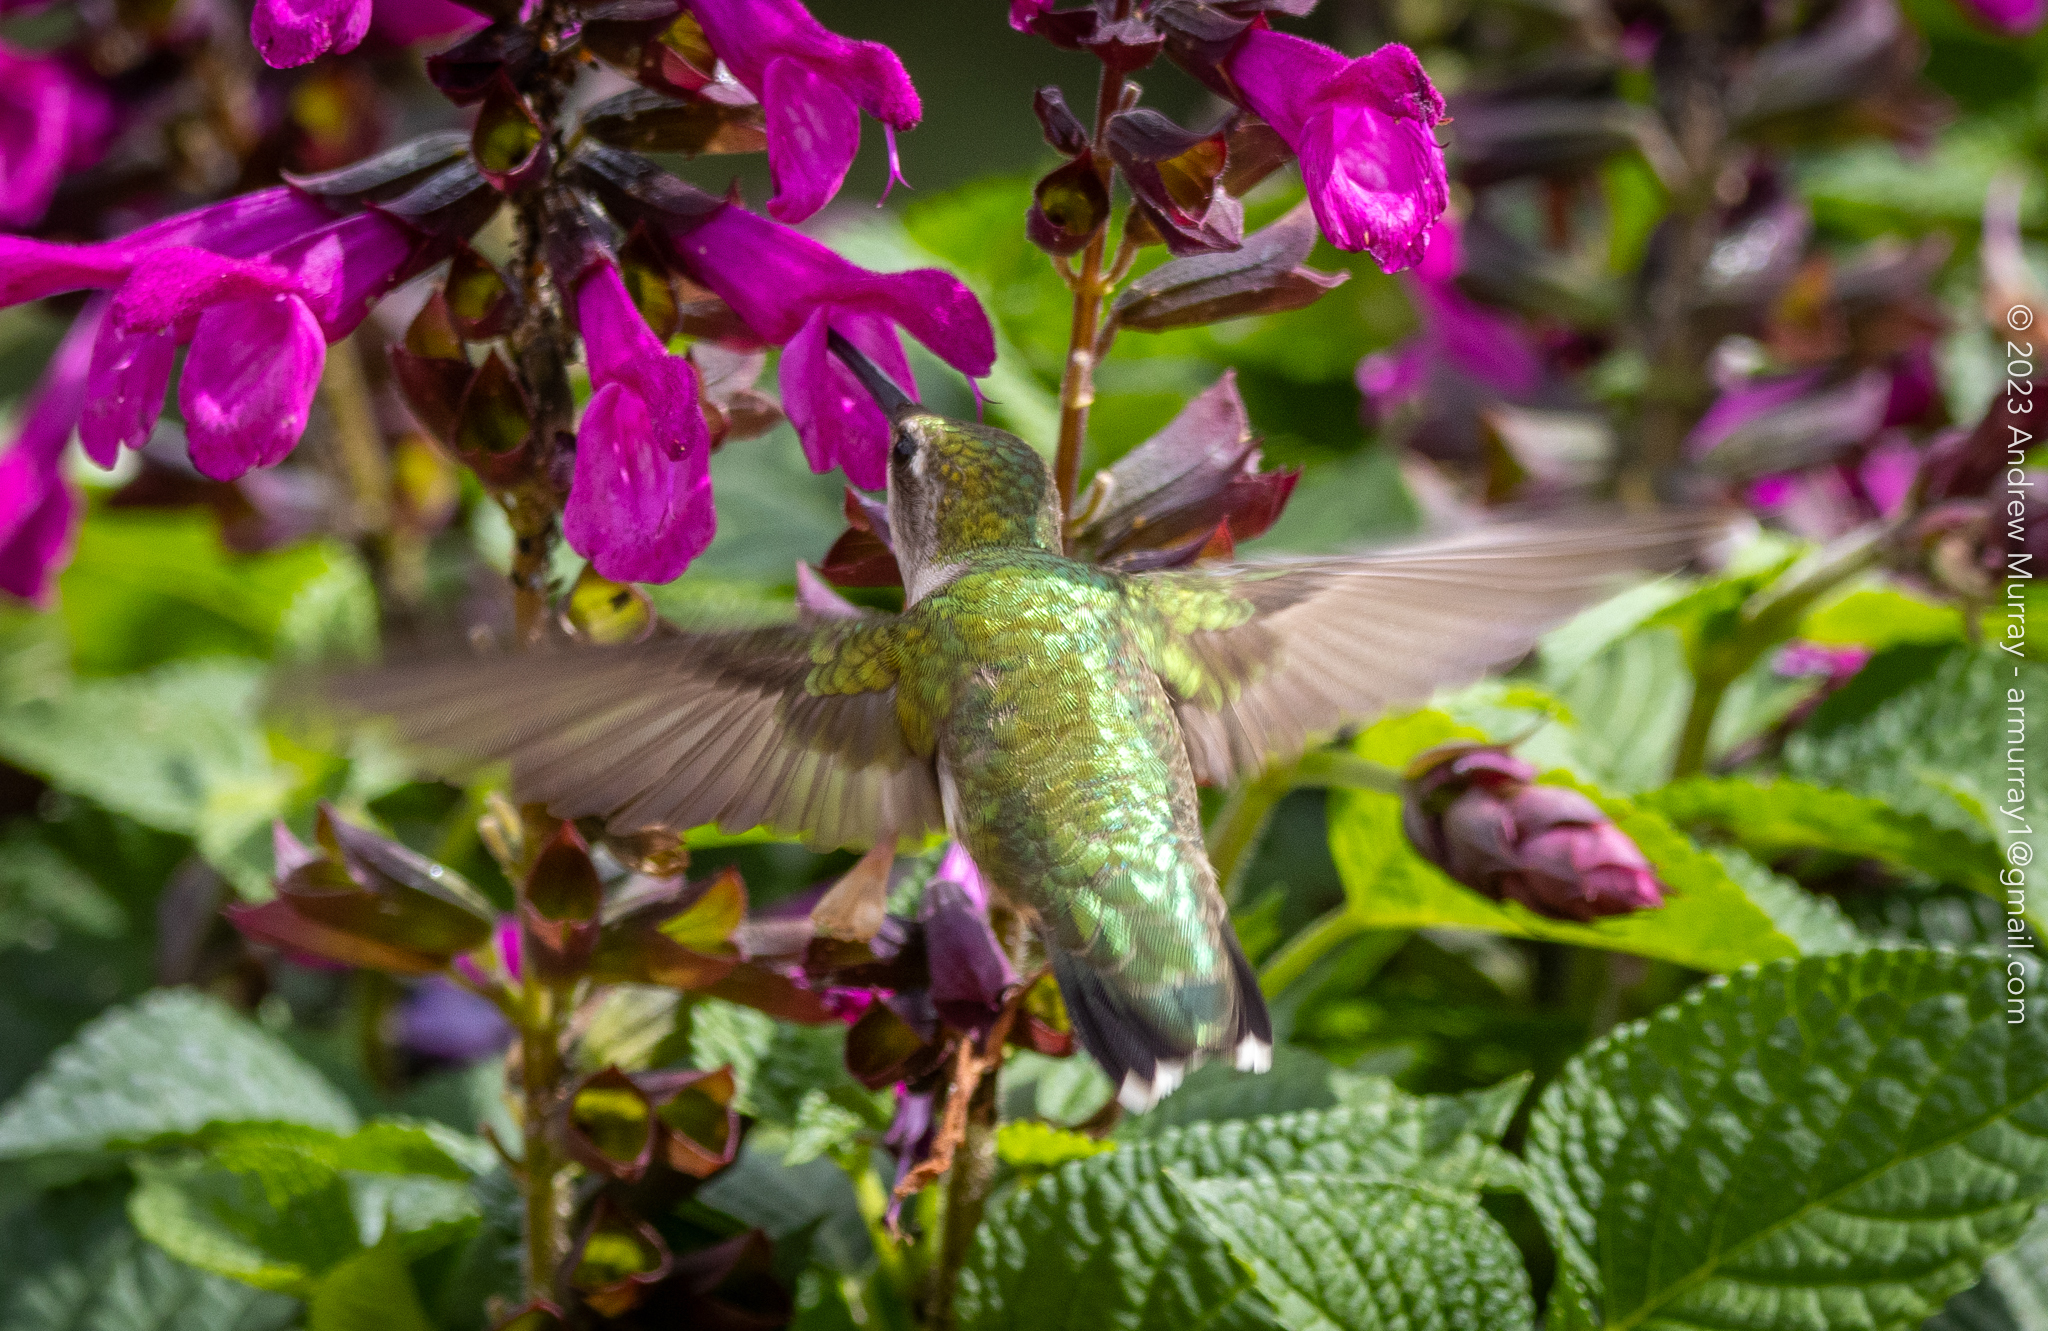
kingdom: Animalia
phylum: Chordata
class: Aves
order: Apodiformes
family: Trochilidae
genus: Archilochus
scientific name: Archilochus colubris
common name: Ruby-throated hummingbird
